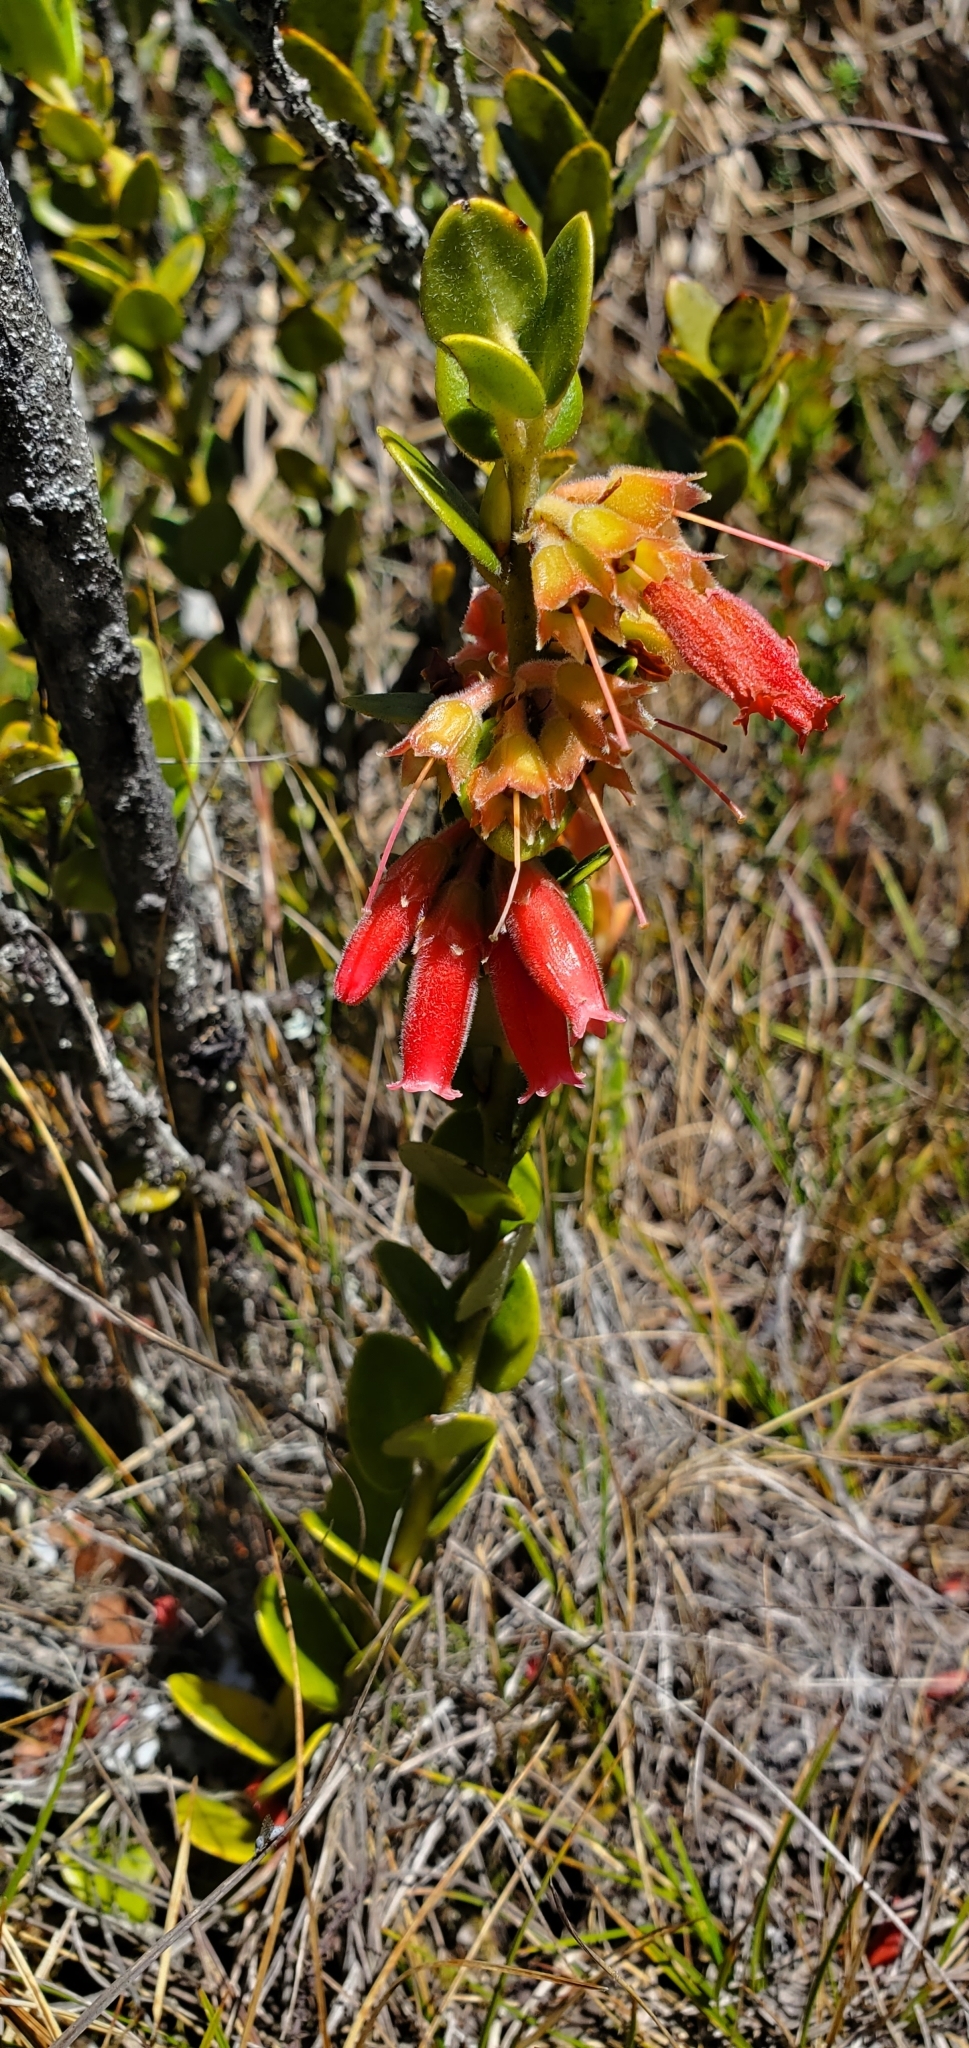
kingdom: Plantae
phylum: Tracheophyta
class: Magnoliopsida
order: Ericales
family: Ericaceae
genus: Plutarchia
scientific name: Plutarchia guascensis
